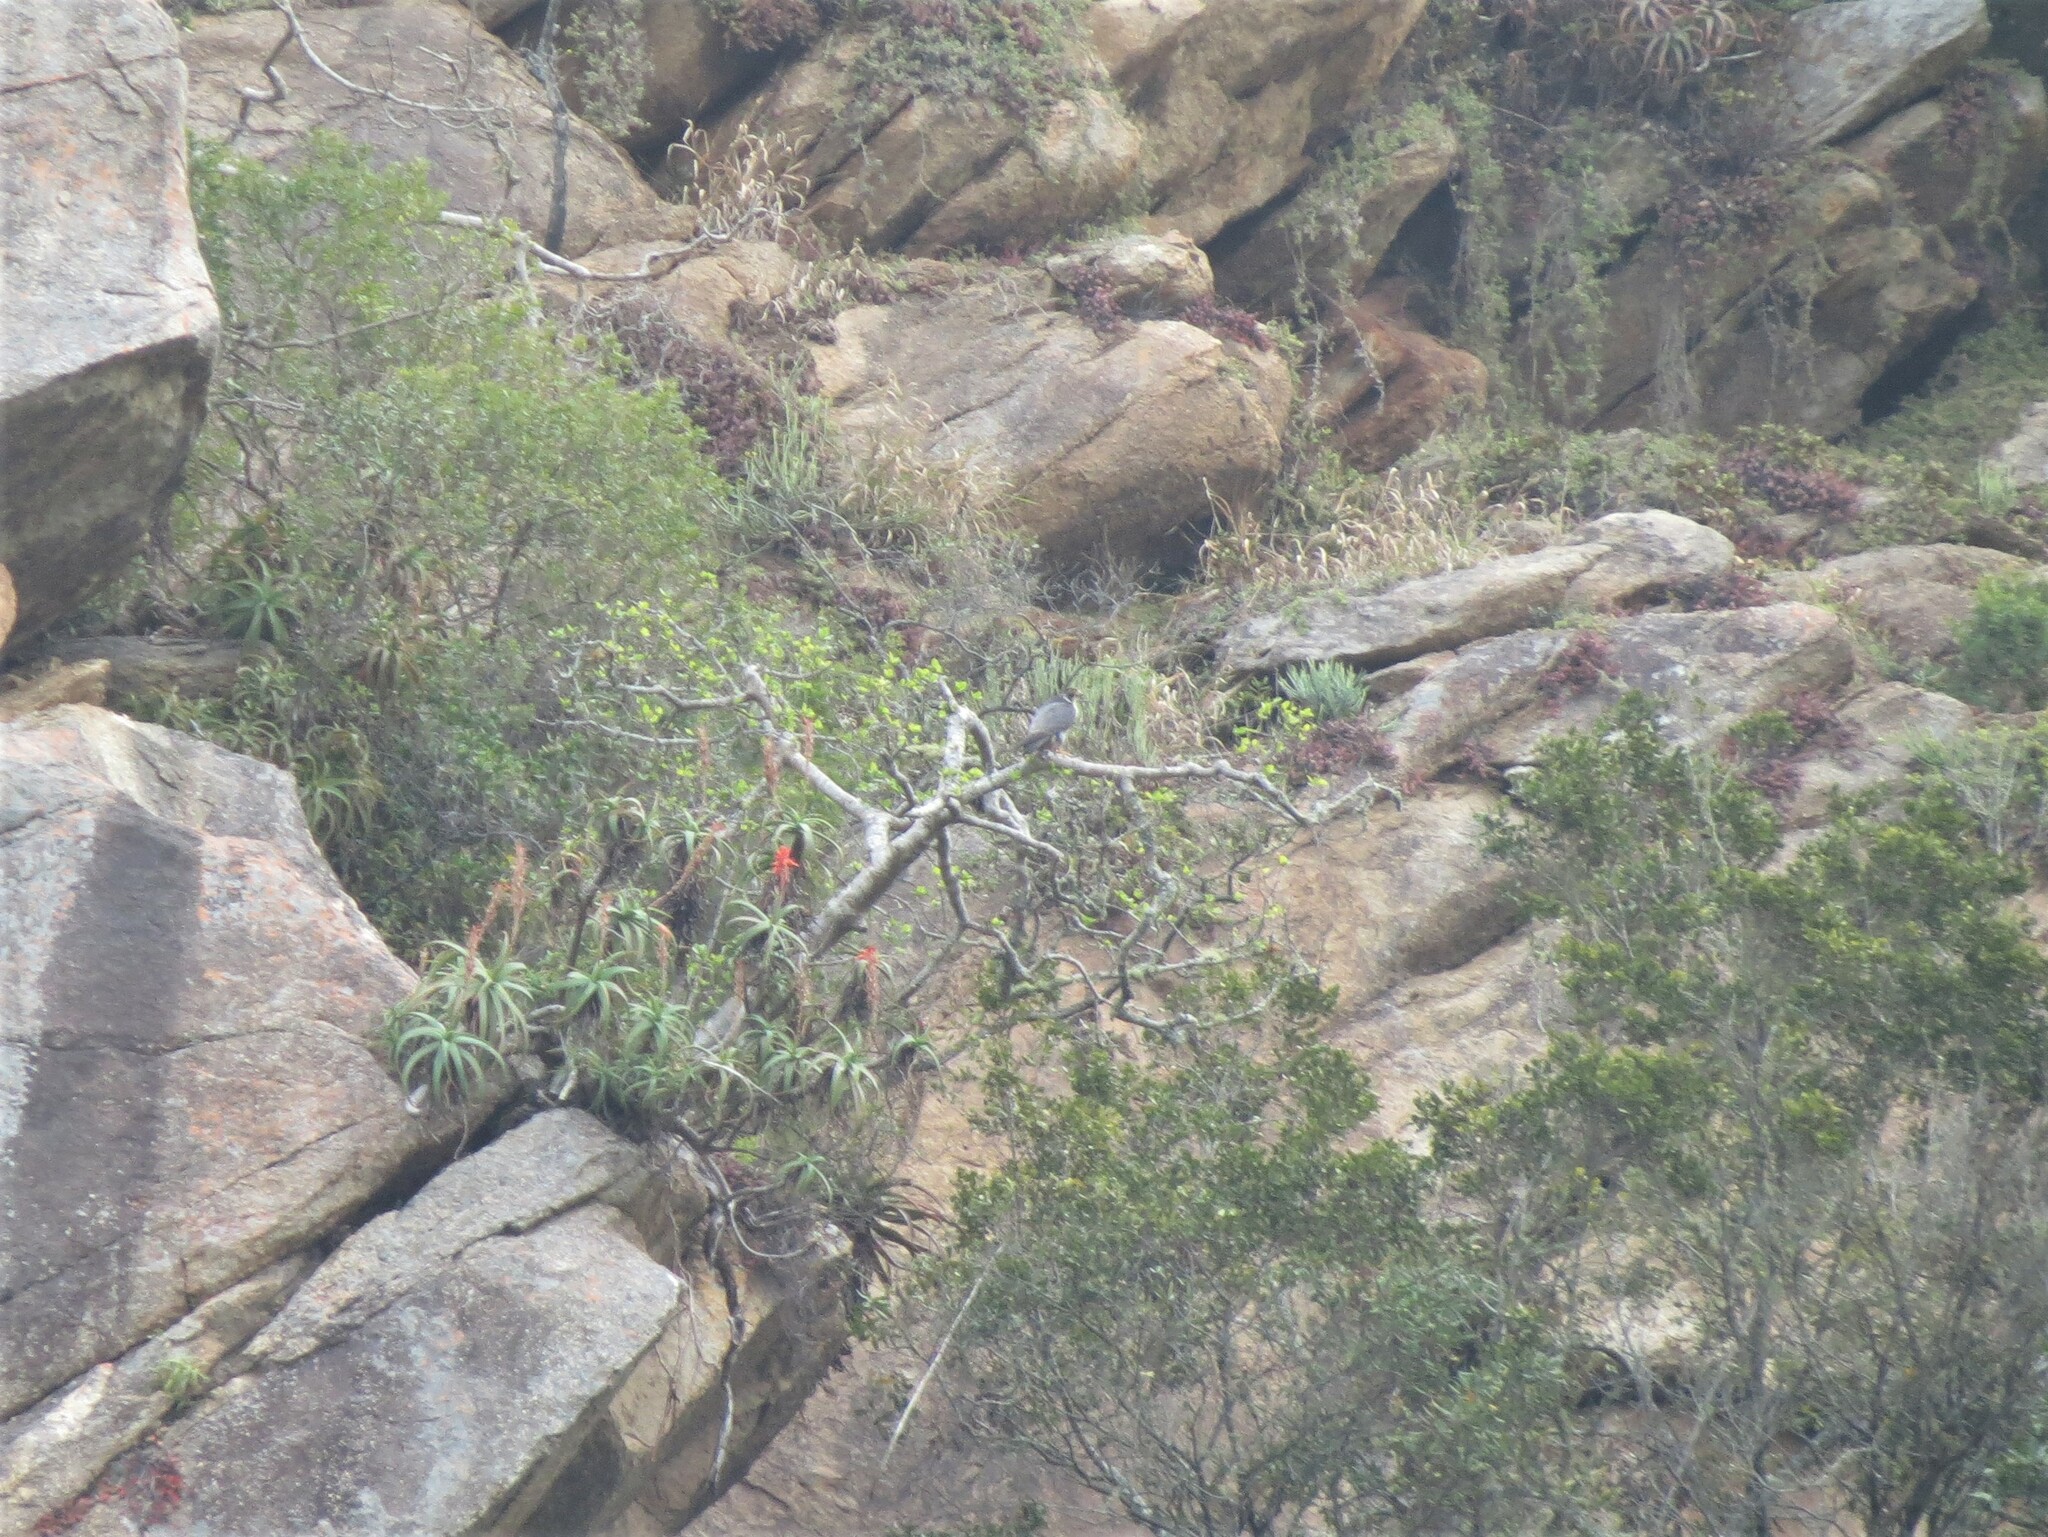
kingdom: Animalia
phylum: Chordata
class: Aves
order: Falconiformes
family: Falconidae
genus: Falco
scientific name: Falco peregrinus
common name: Peregrine falcon
